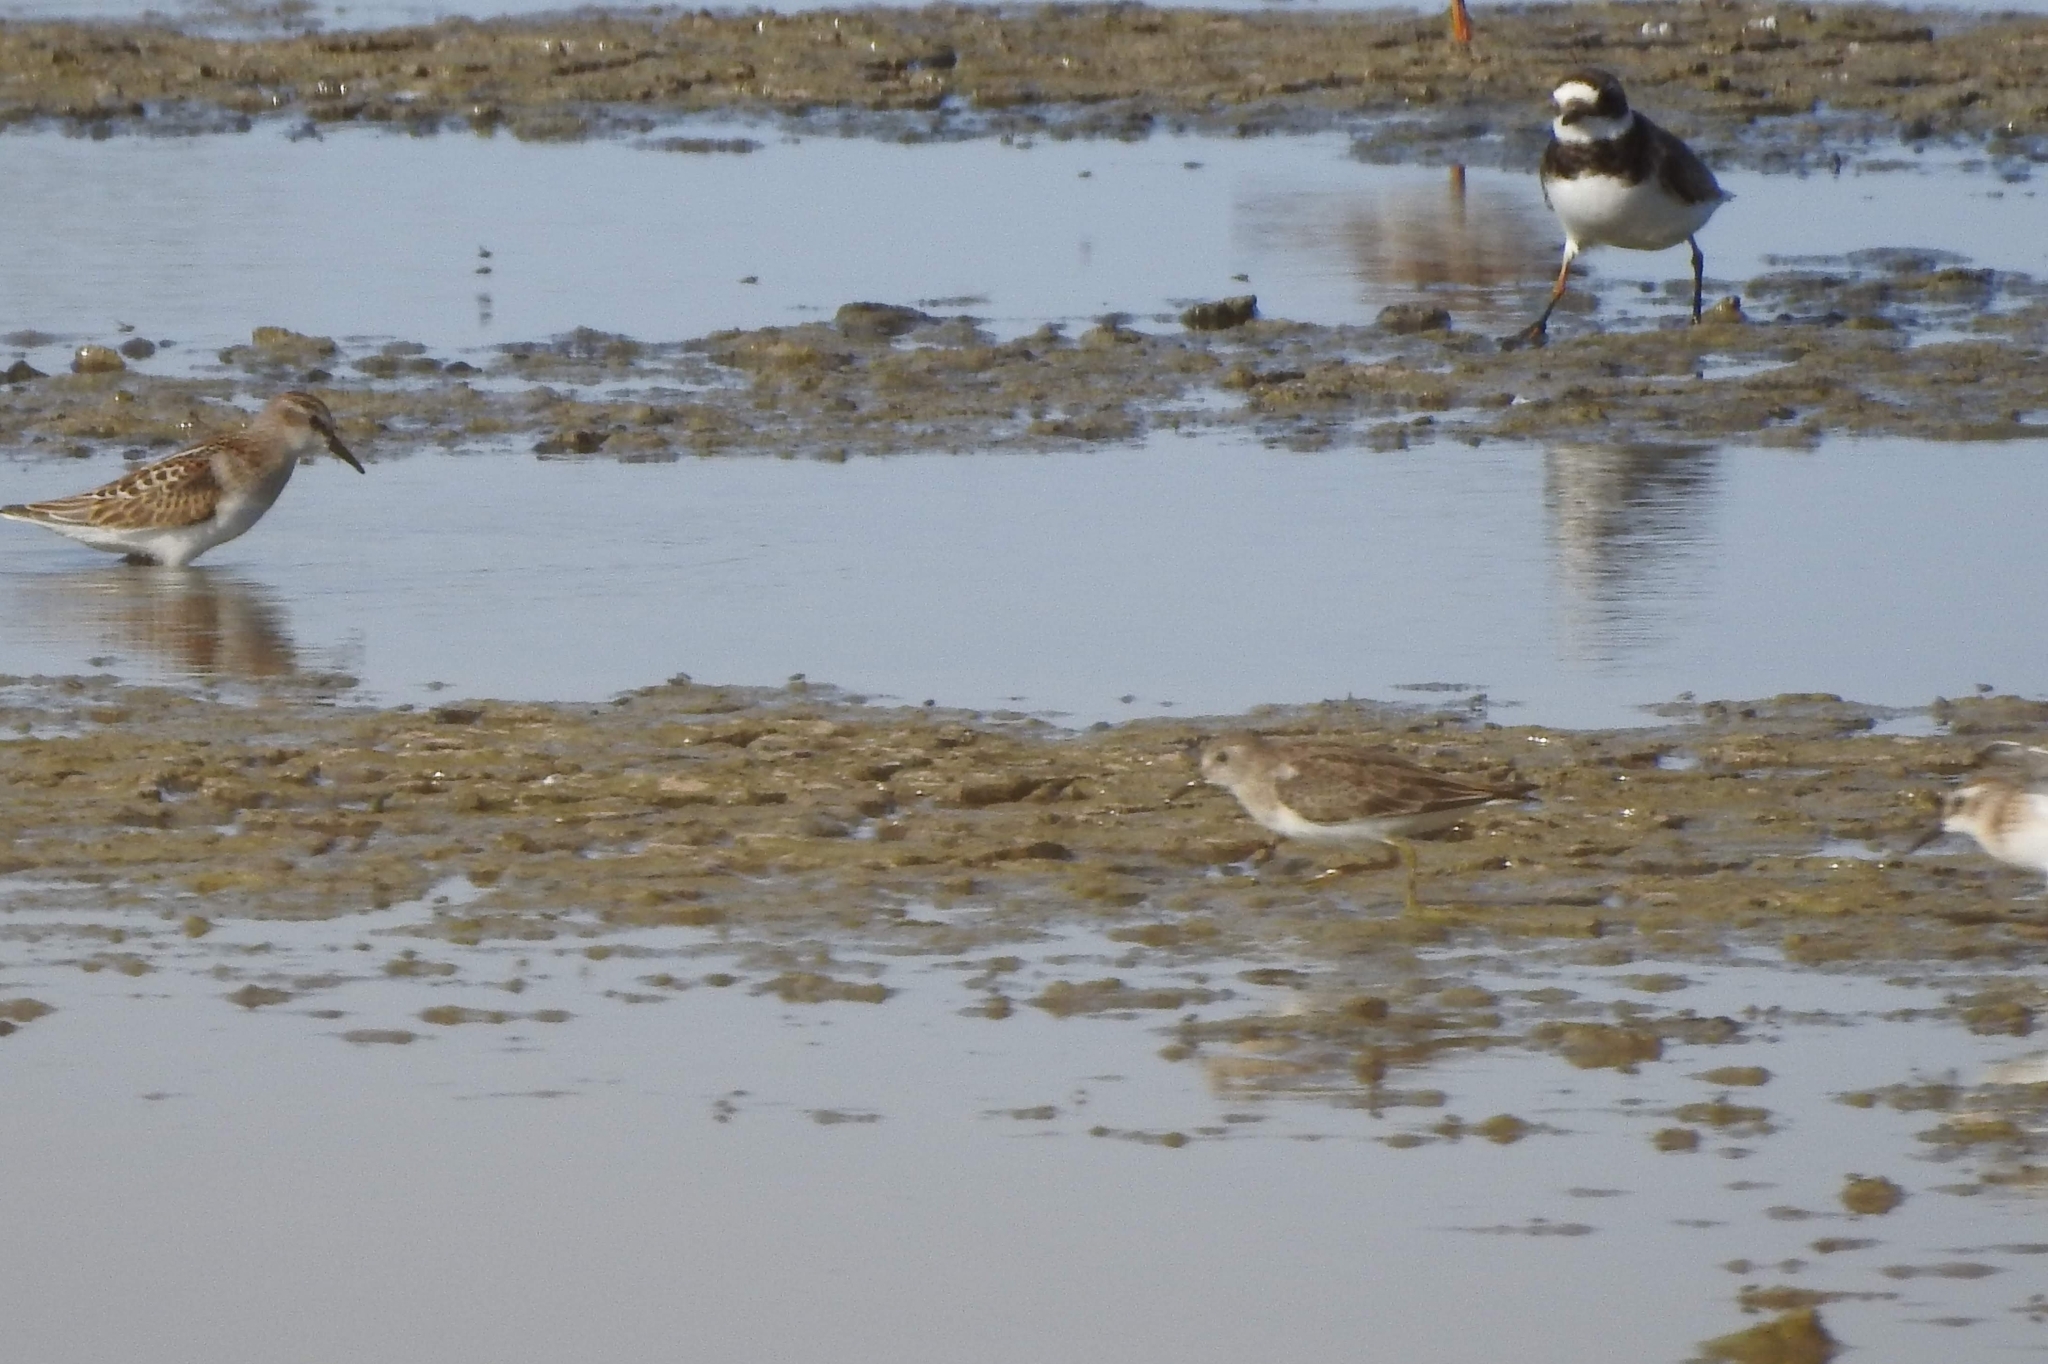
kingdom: Animalia
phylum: Chordata
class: Aves
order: Charadriiformes
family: Scolopacidae
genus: Calidris
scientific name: Calidris temminckii
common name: Temminck's stint
